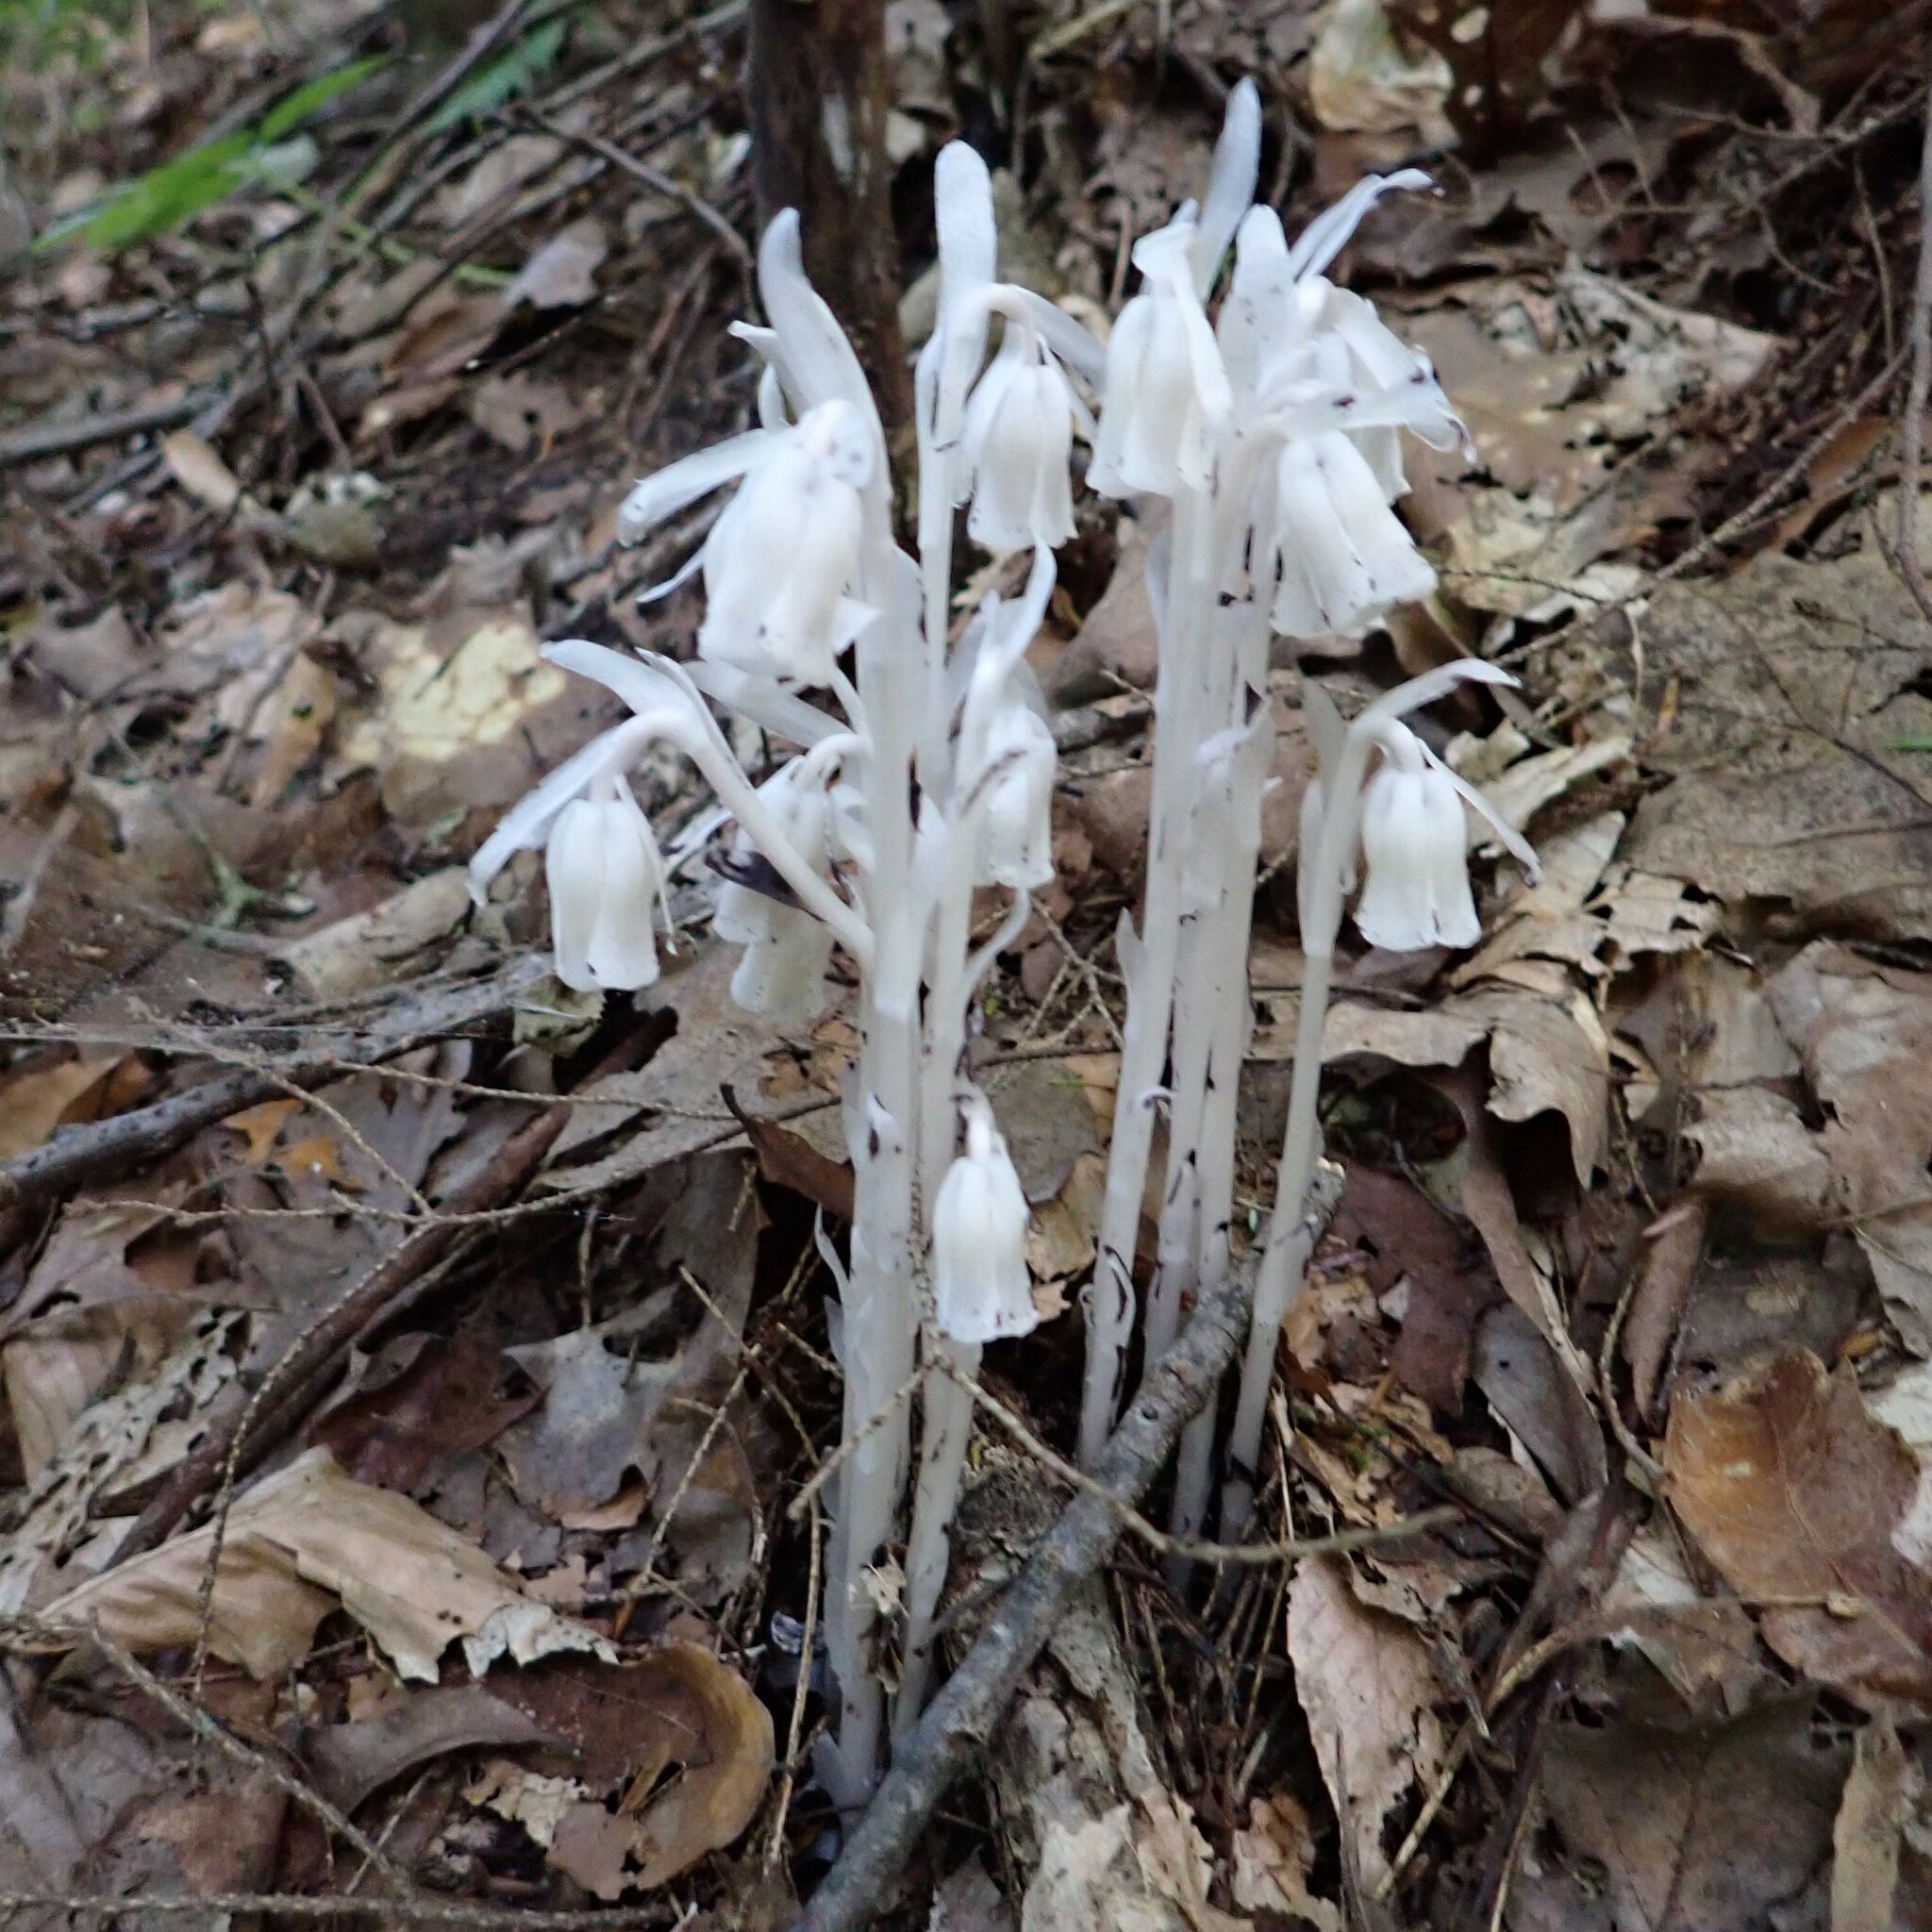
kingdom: Plantae
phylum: Tracheophyta
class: Magnoliopsida
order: Ericales
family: Ericaceae
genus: Monotropa
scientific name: Monotropa uniflora
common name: Convulsion root
